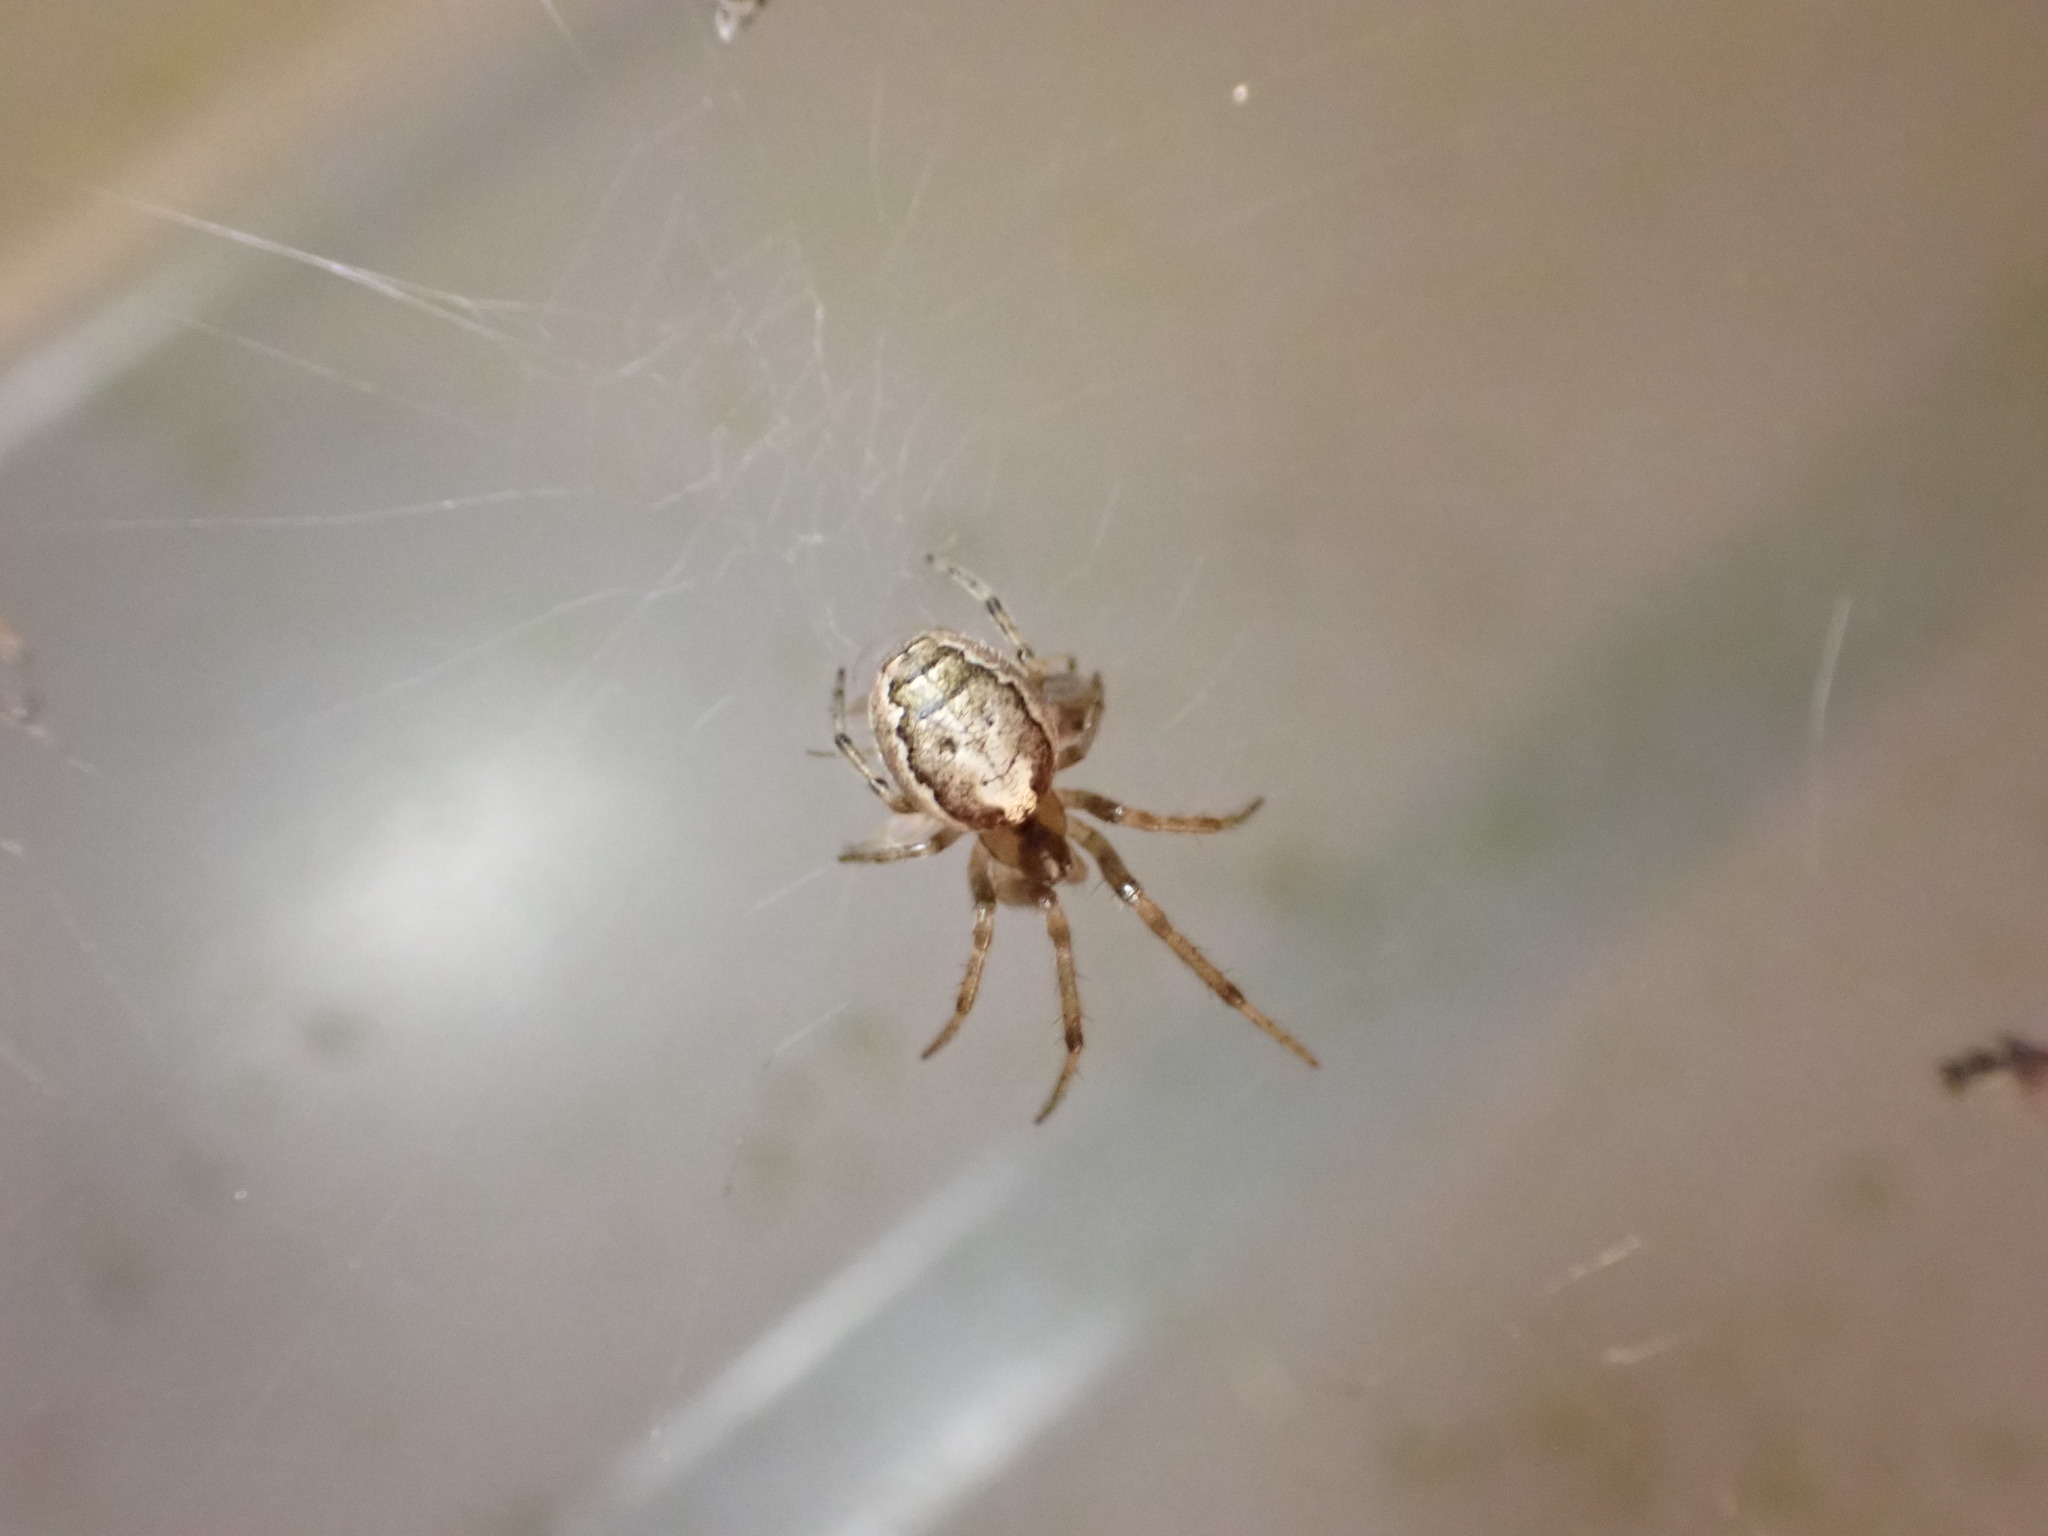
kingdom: Animalia
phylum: Arthropoda
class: Arachnida
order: Araneae
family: Araneidae
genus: Zygiella
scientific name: Zygiella x-notata
